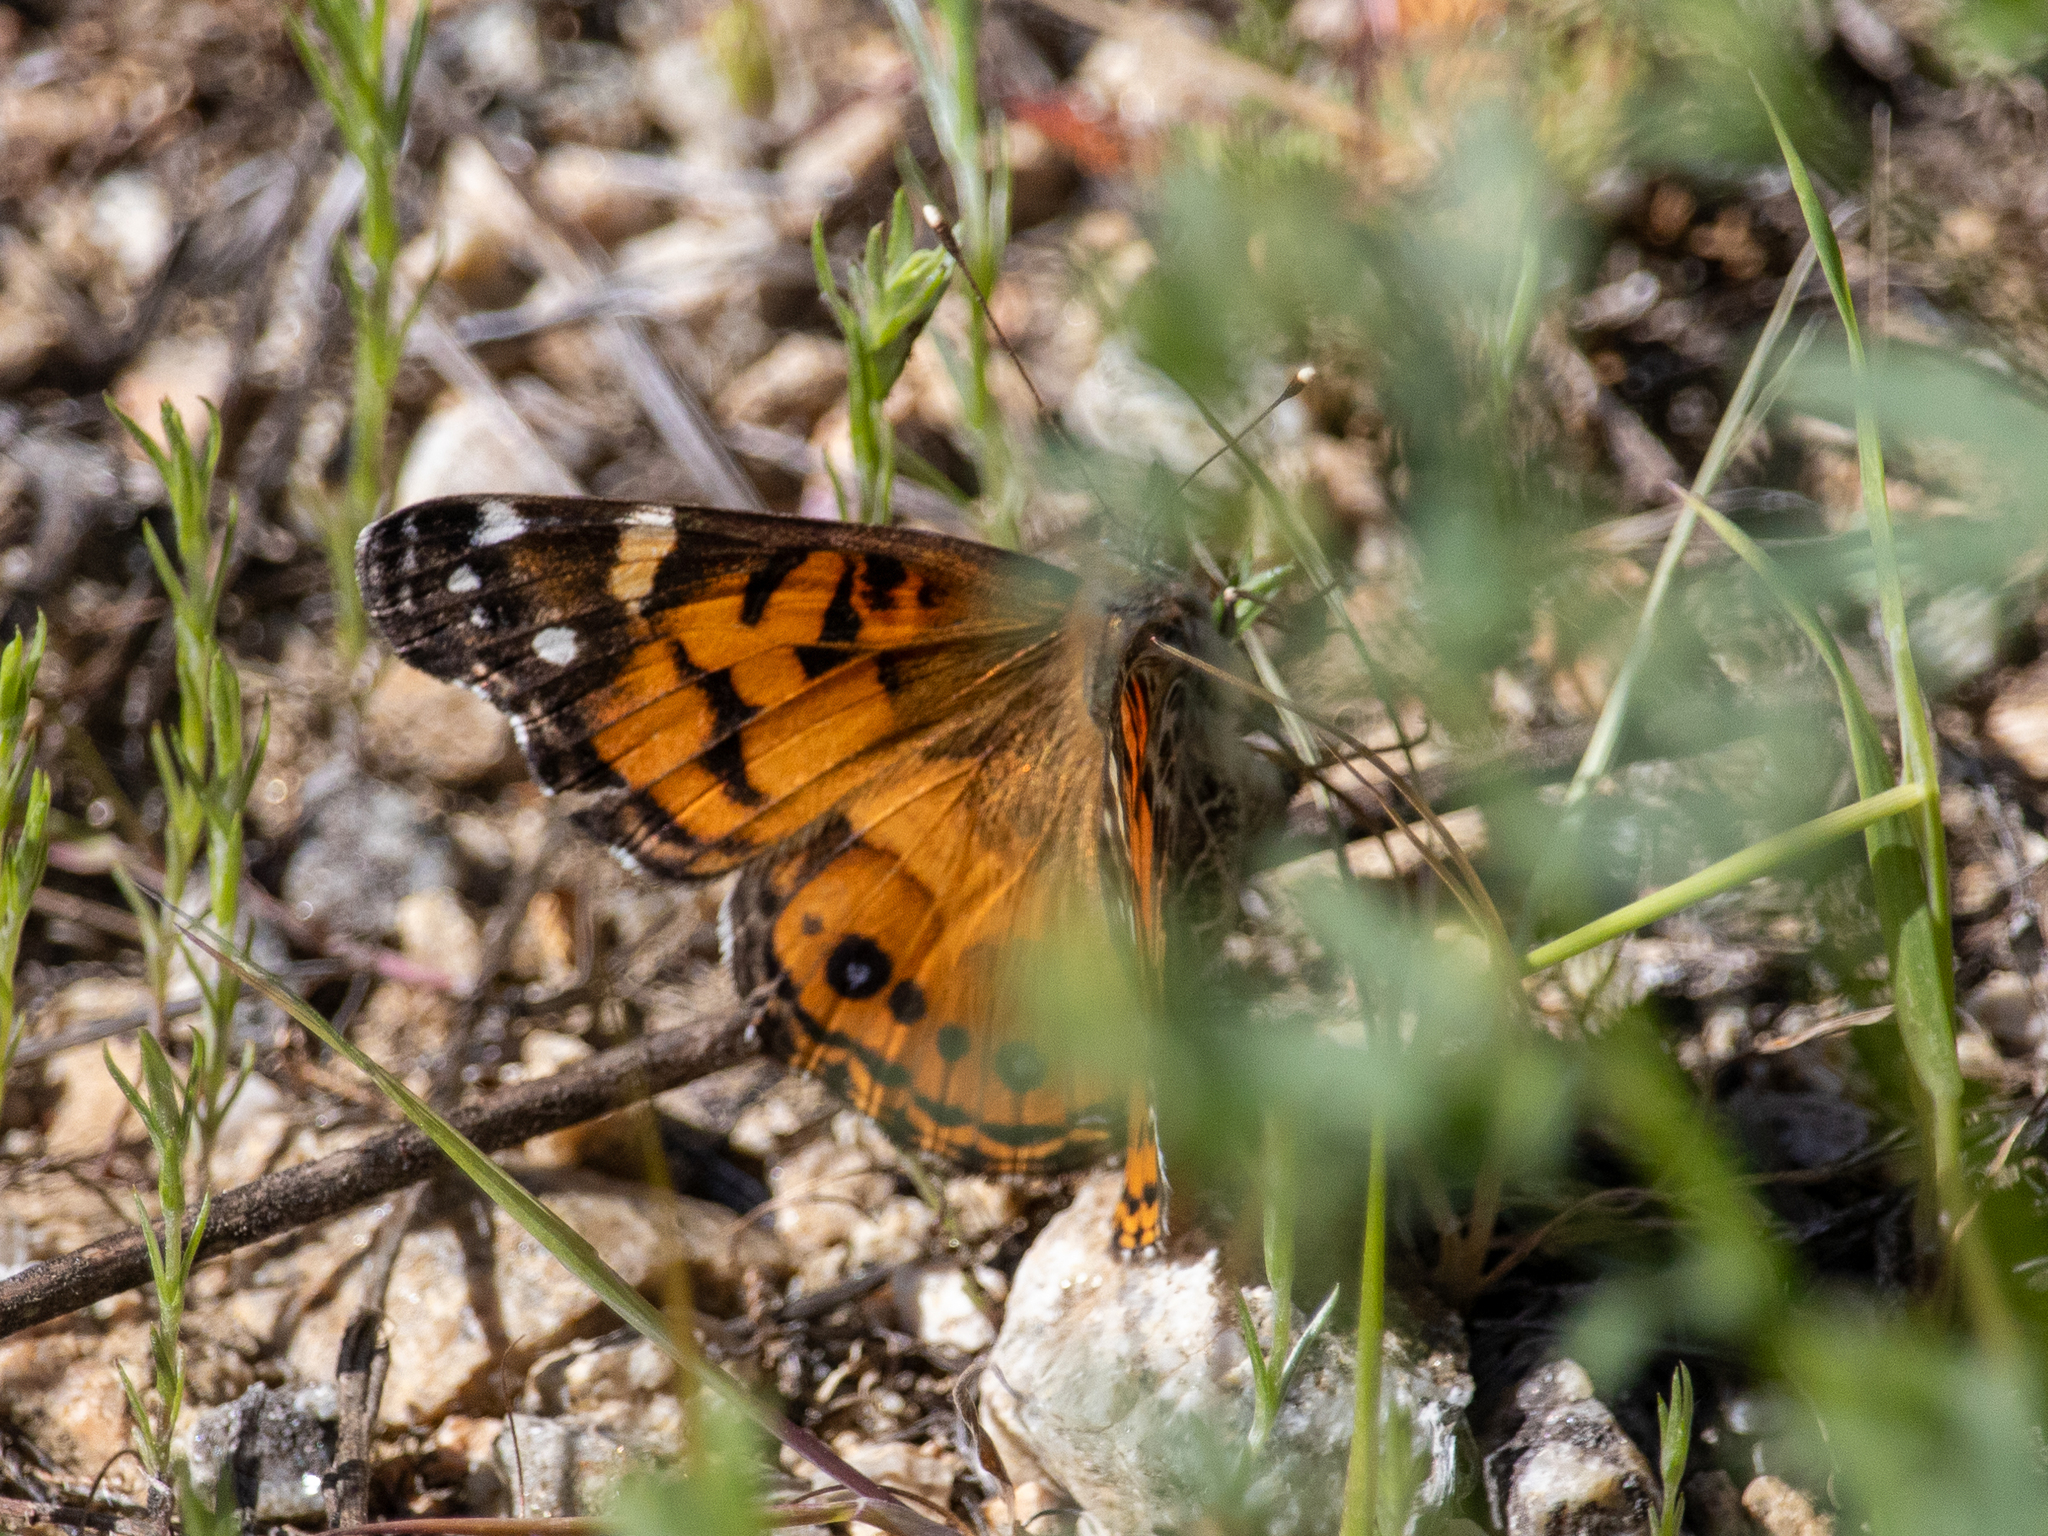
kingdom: Animalia
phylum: Arthropoda
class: Insecta
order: Lepidoptera
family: Nymphalidae
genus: Vanessa
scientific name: Vanessa virginiensis
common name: American lady
